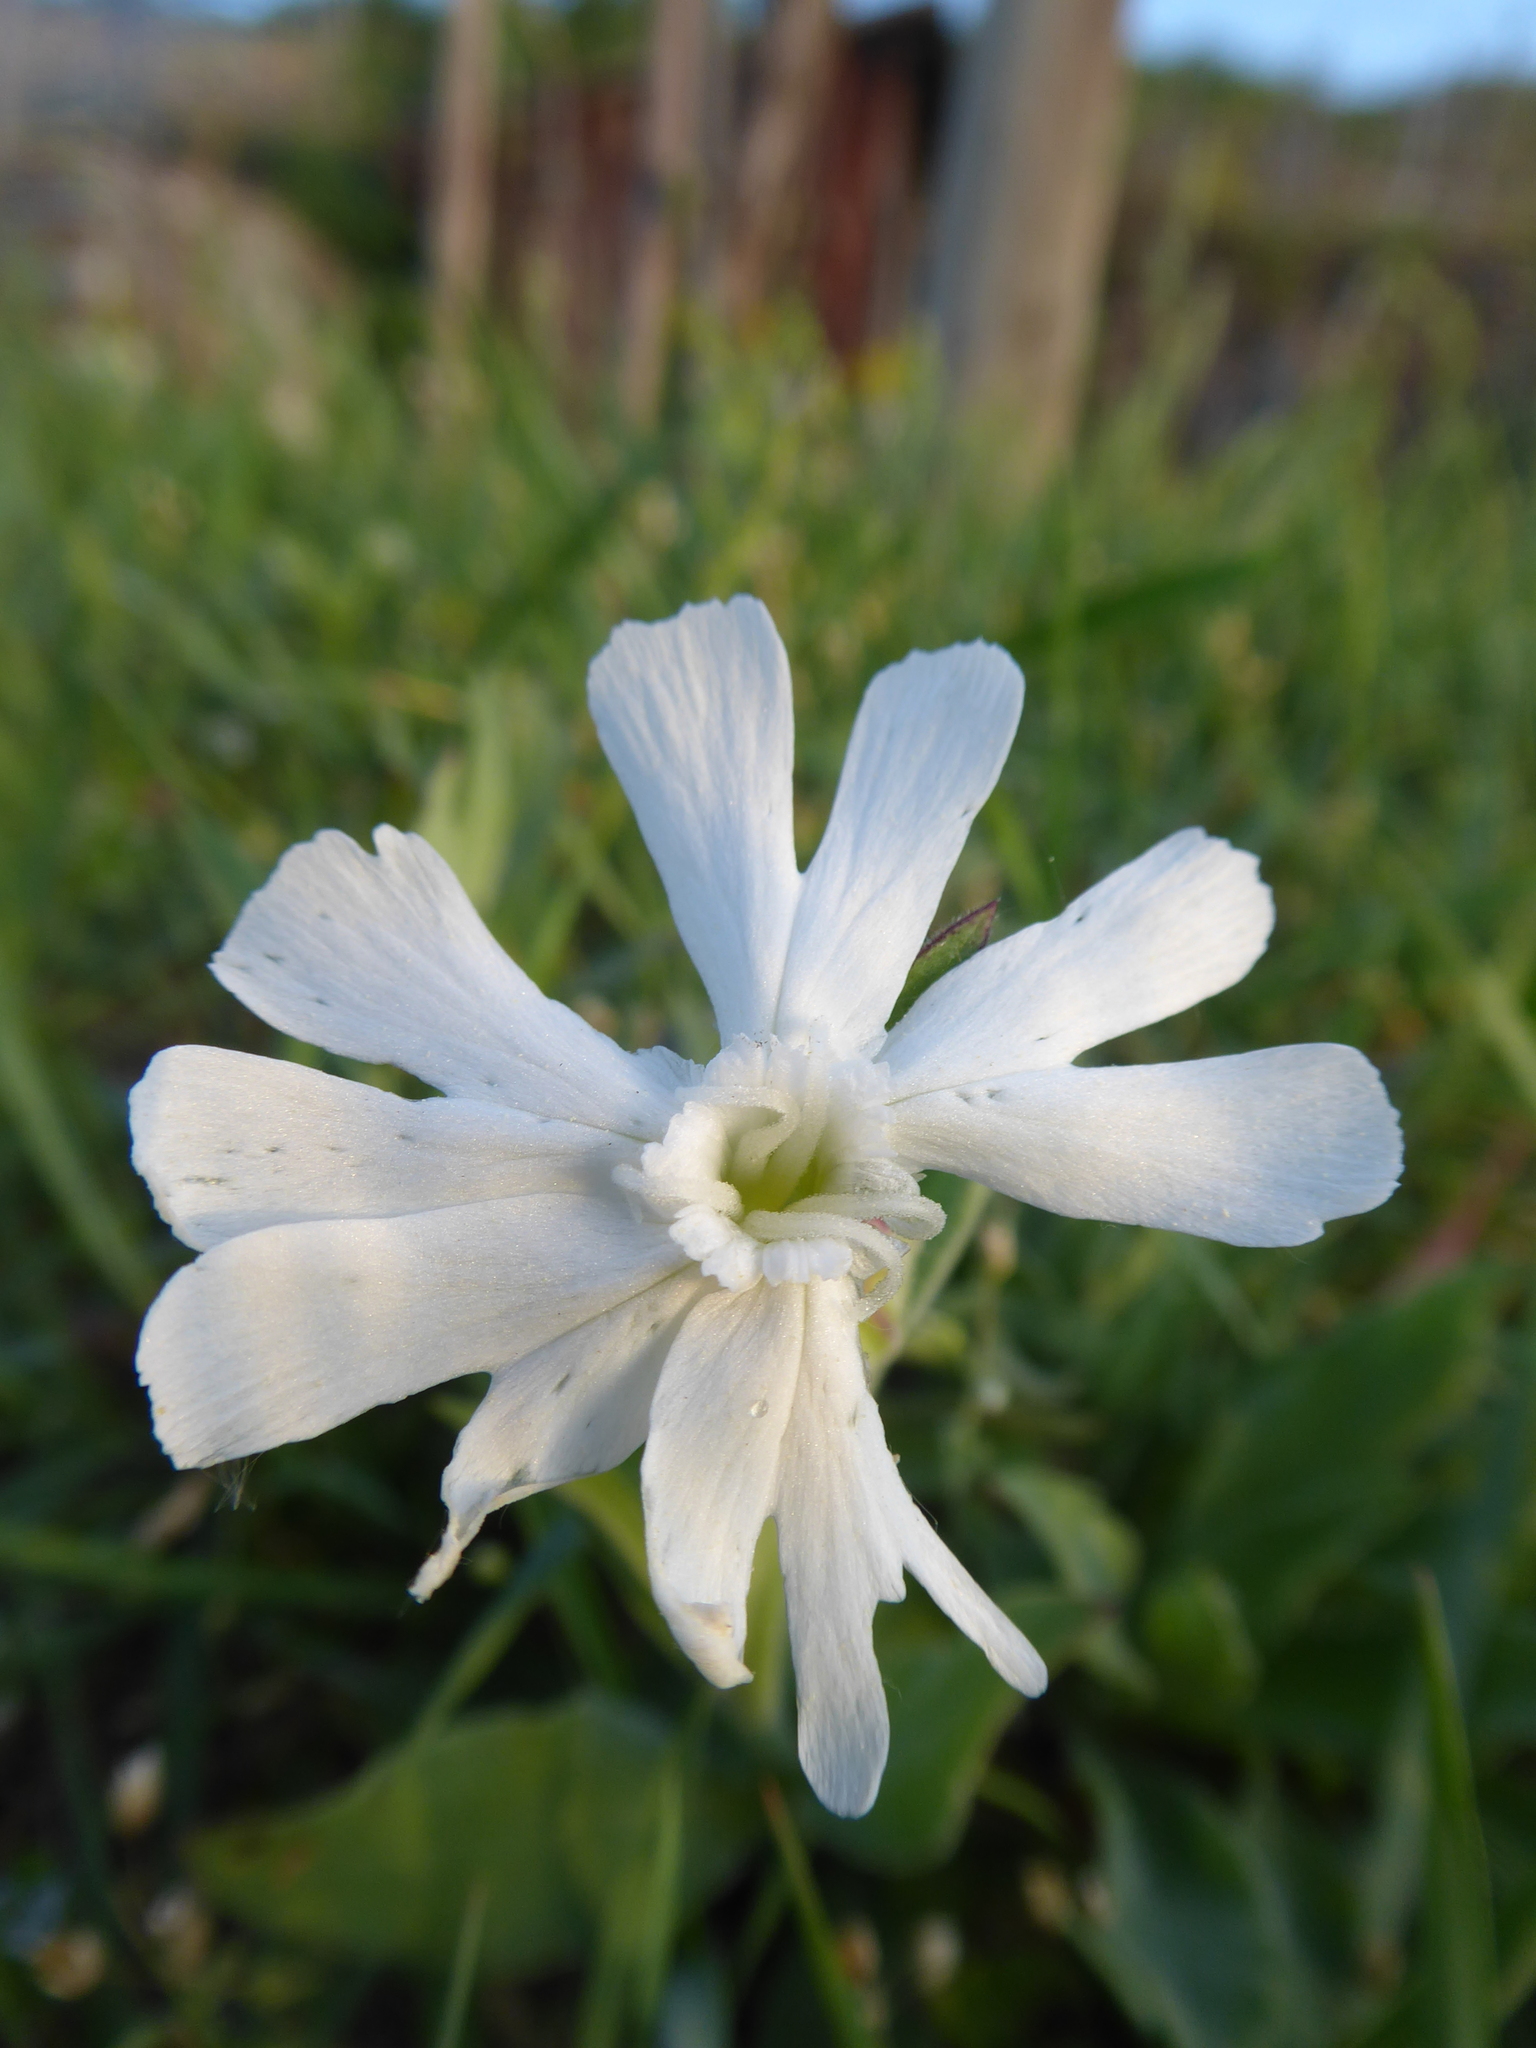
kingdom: Plantae
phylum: Tracheophyta
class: Magnoliopsida
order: Caryophyllales
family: Caryophyllaceae
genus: Silene
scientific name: Silene latifolia
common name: White campion
